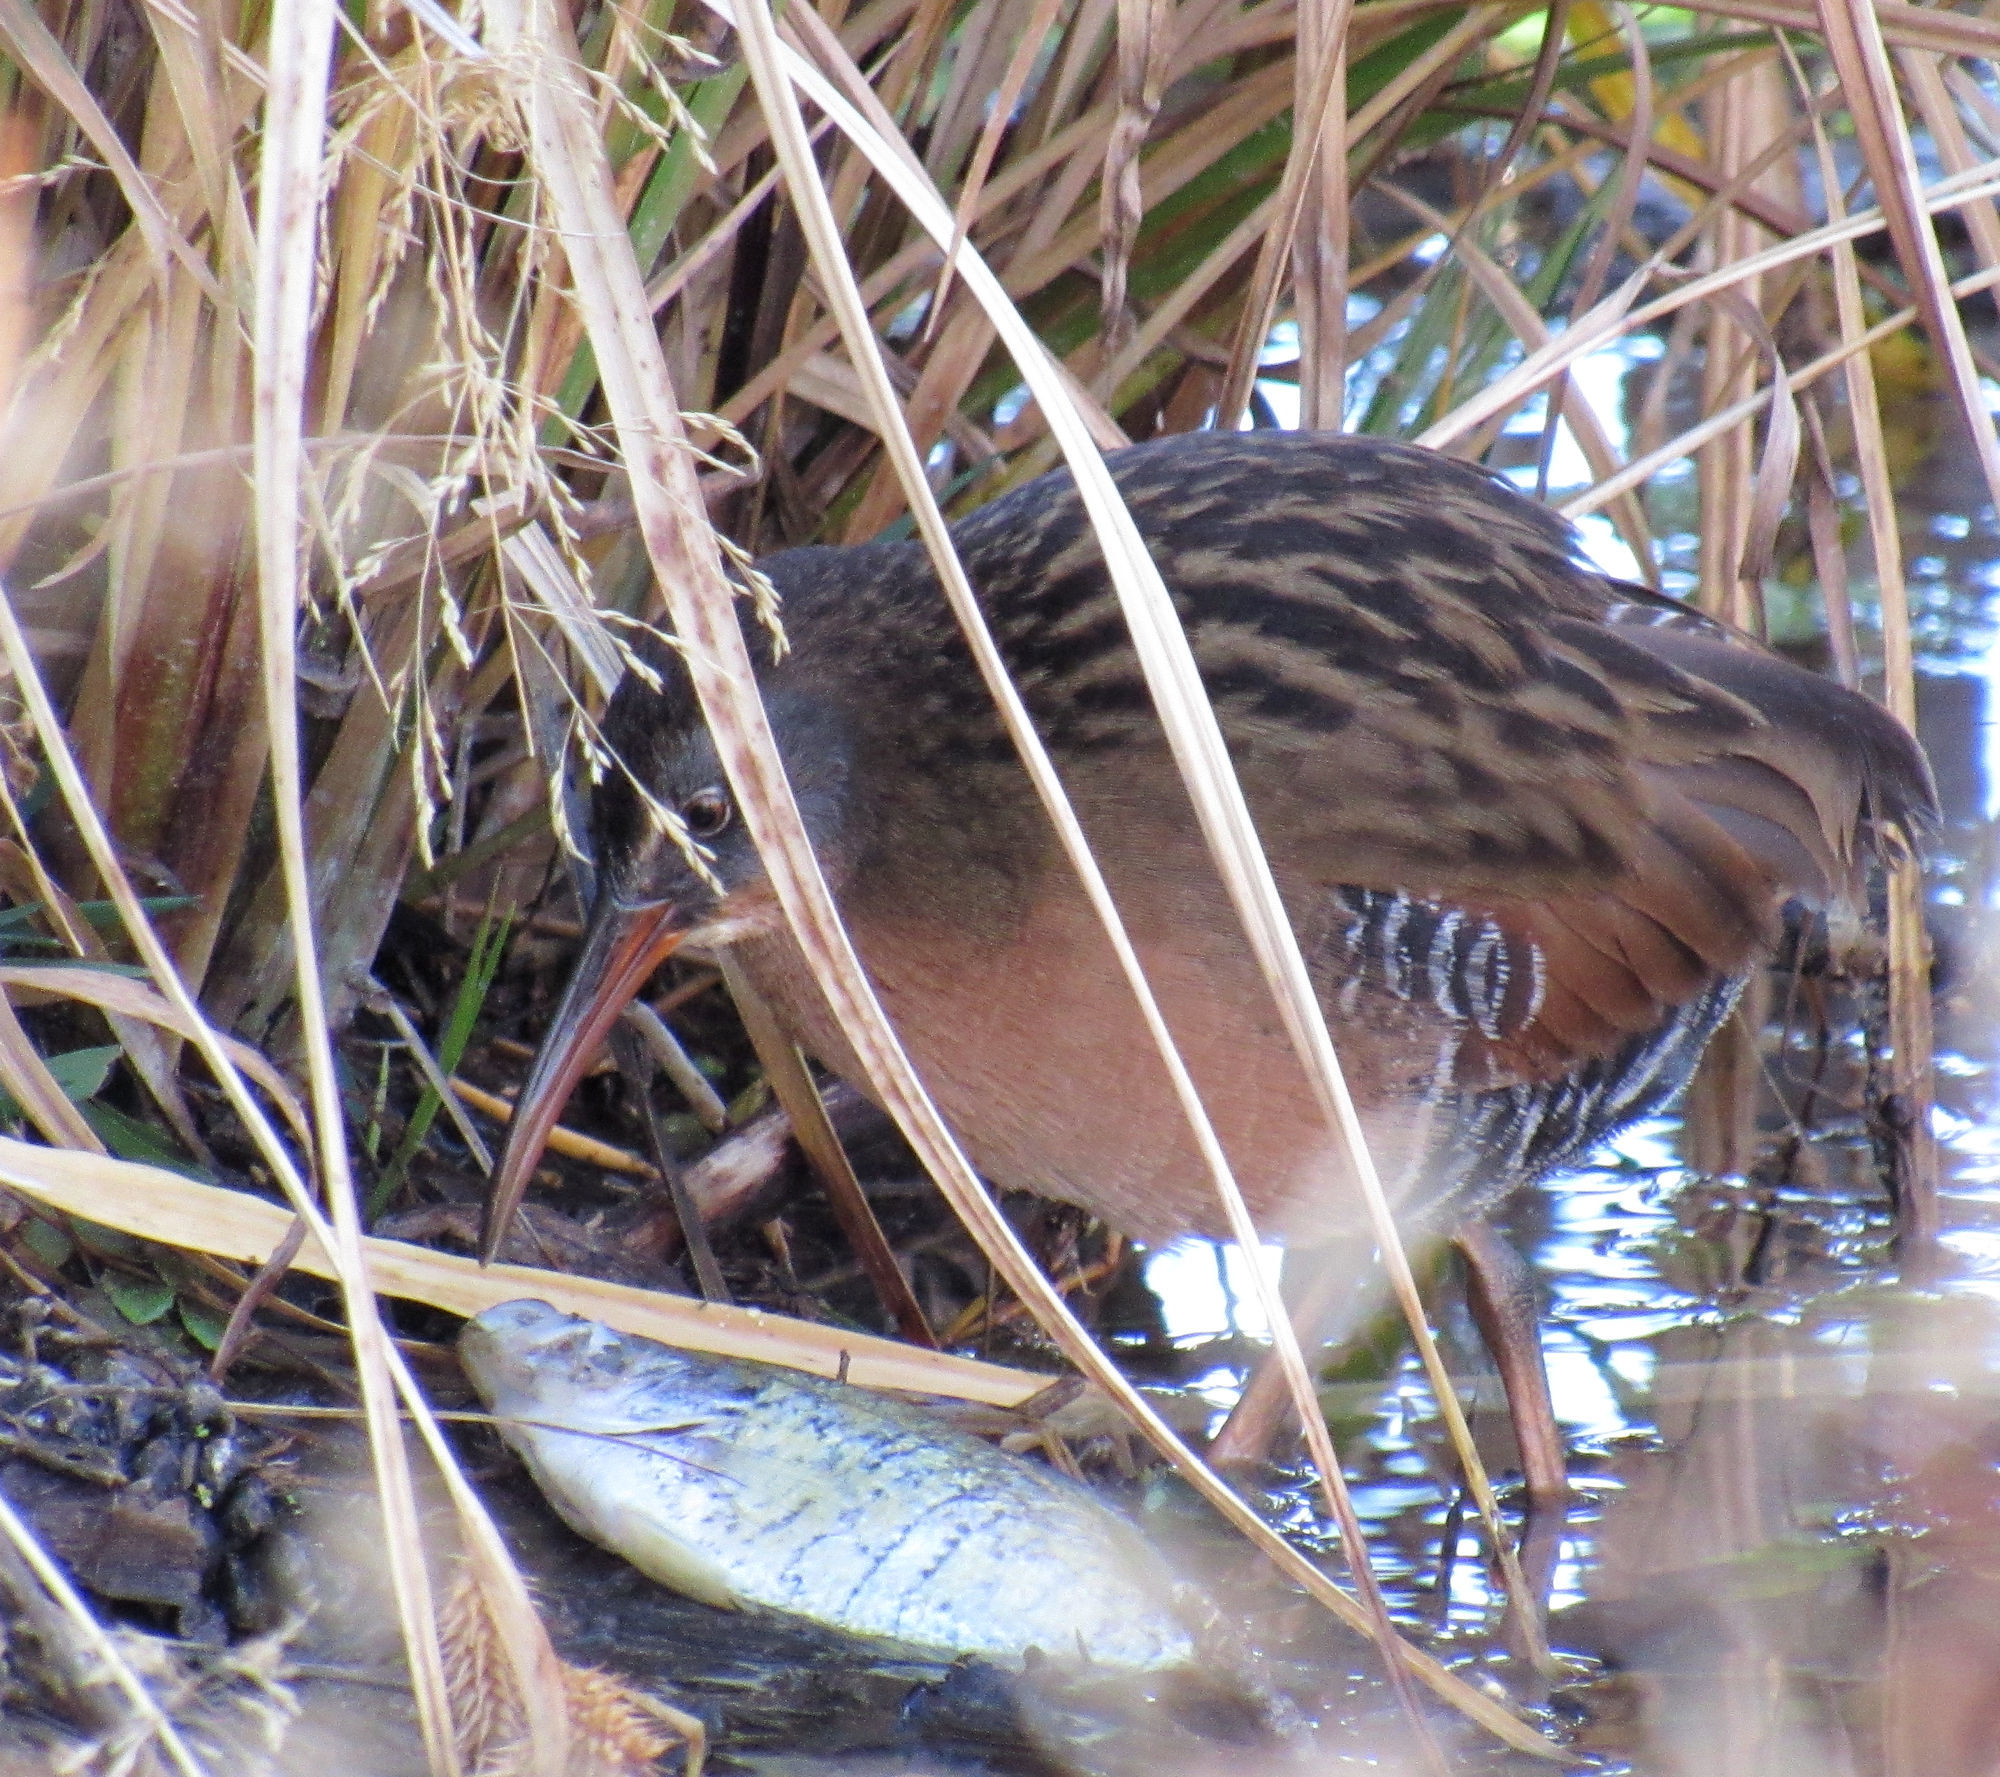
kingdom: Animalia
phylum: Chordata
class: Aves
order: Gruiformes
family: Rallidae
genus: Rallus
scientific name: Rallus limicola
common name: Virginia rail
